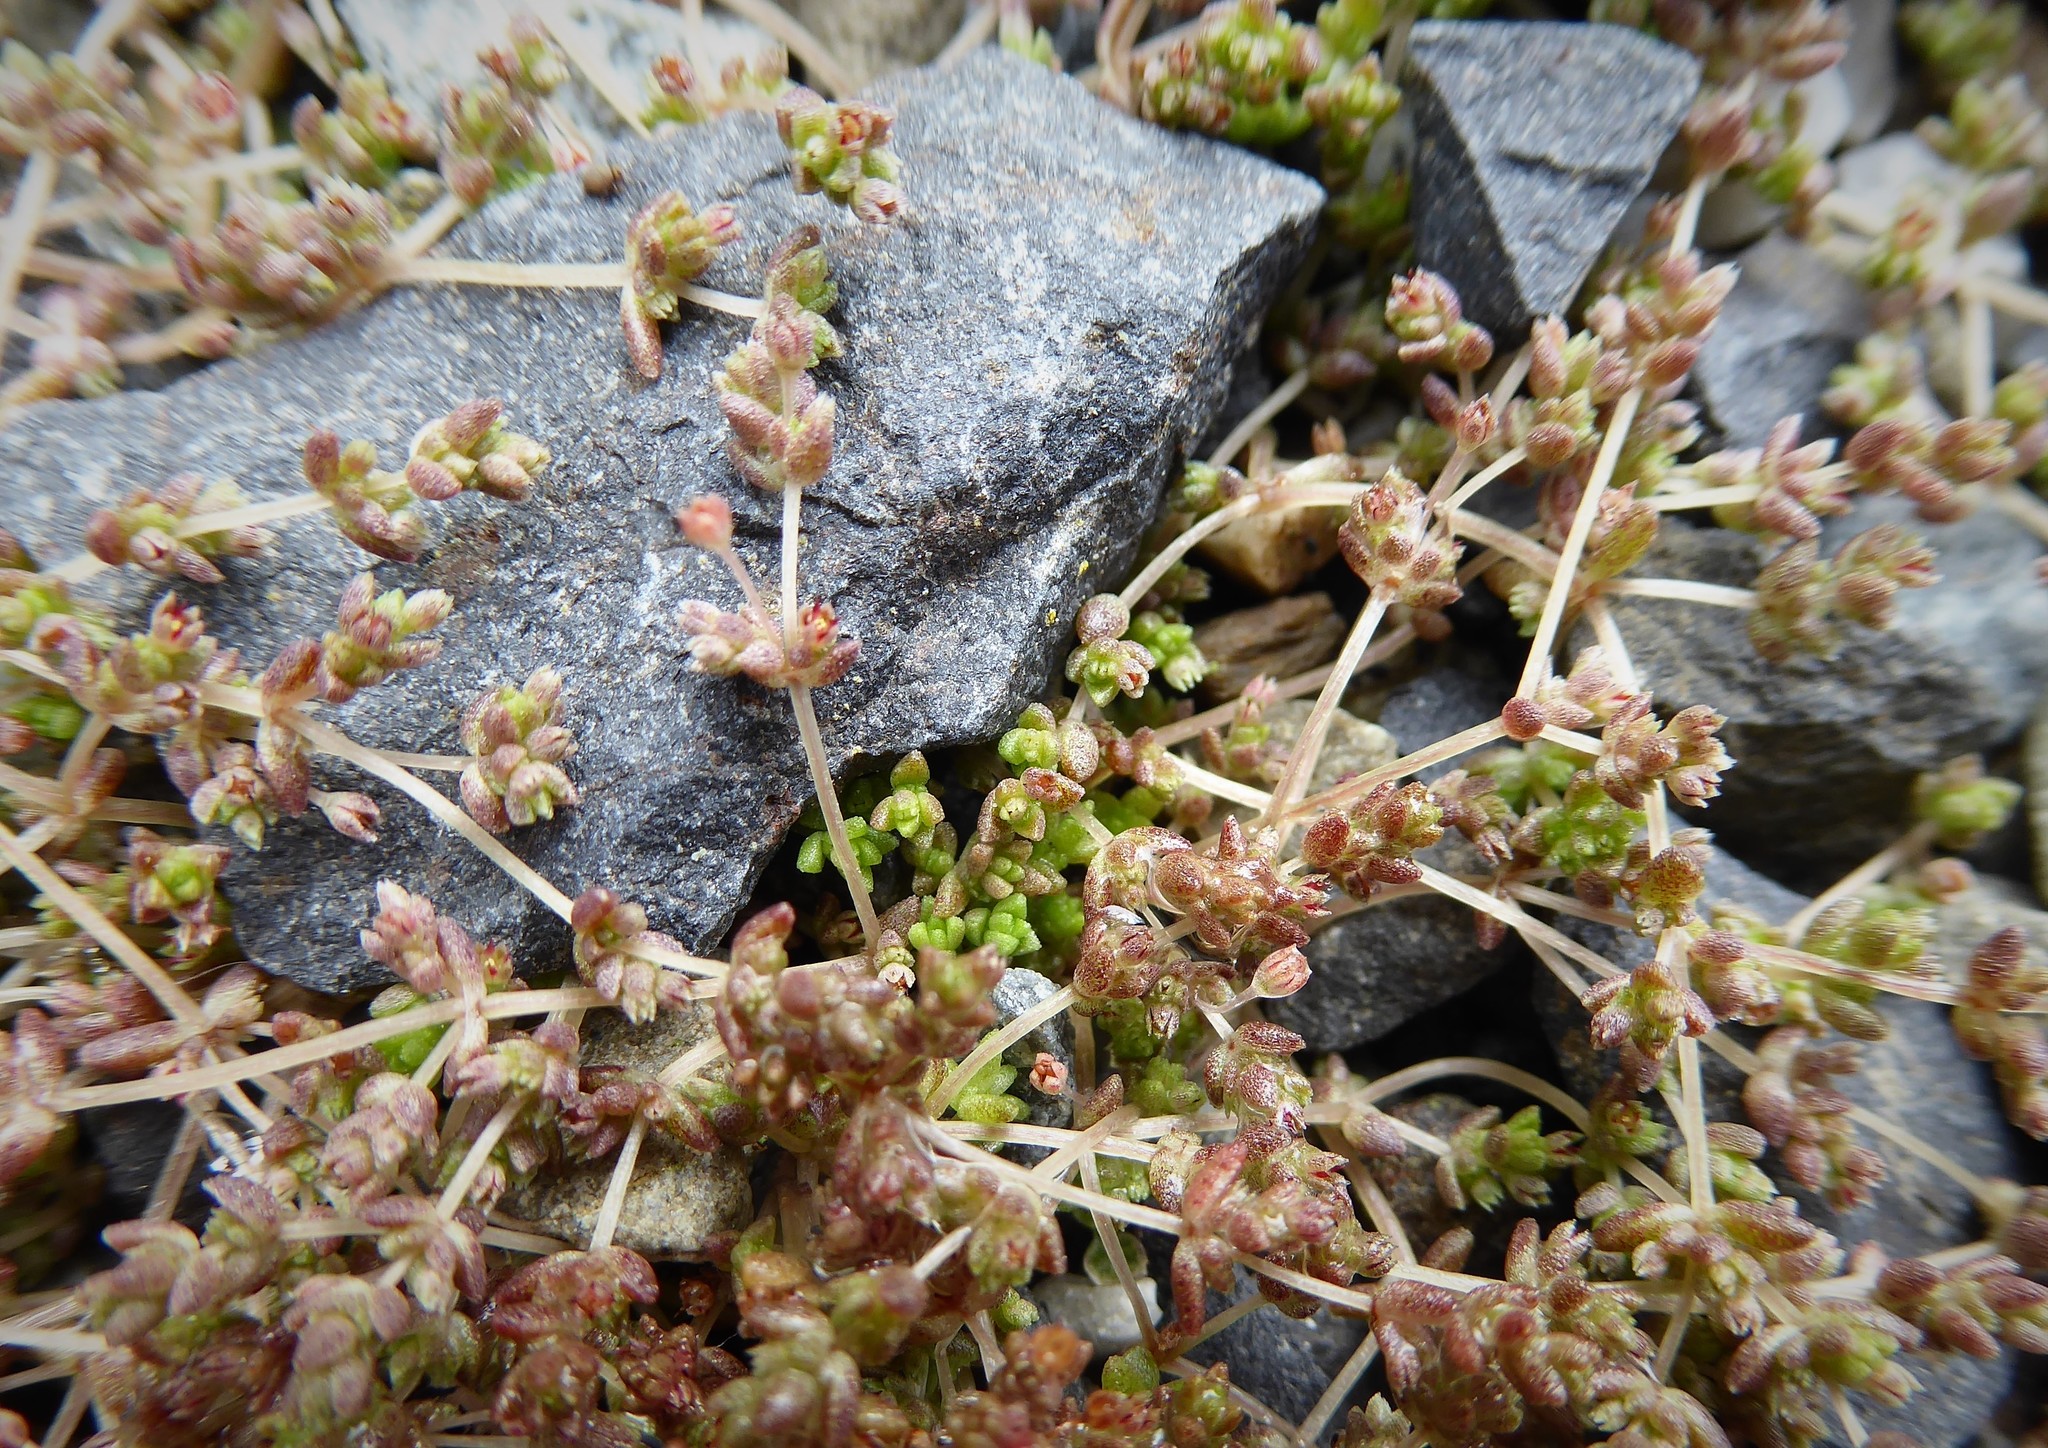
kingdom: Plantae
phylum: Tracheophyta
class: Magnoliopsida
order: Saxifragales
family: Crassulaceae
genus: Crassula
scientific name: Crassula mataikona
